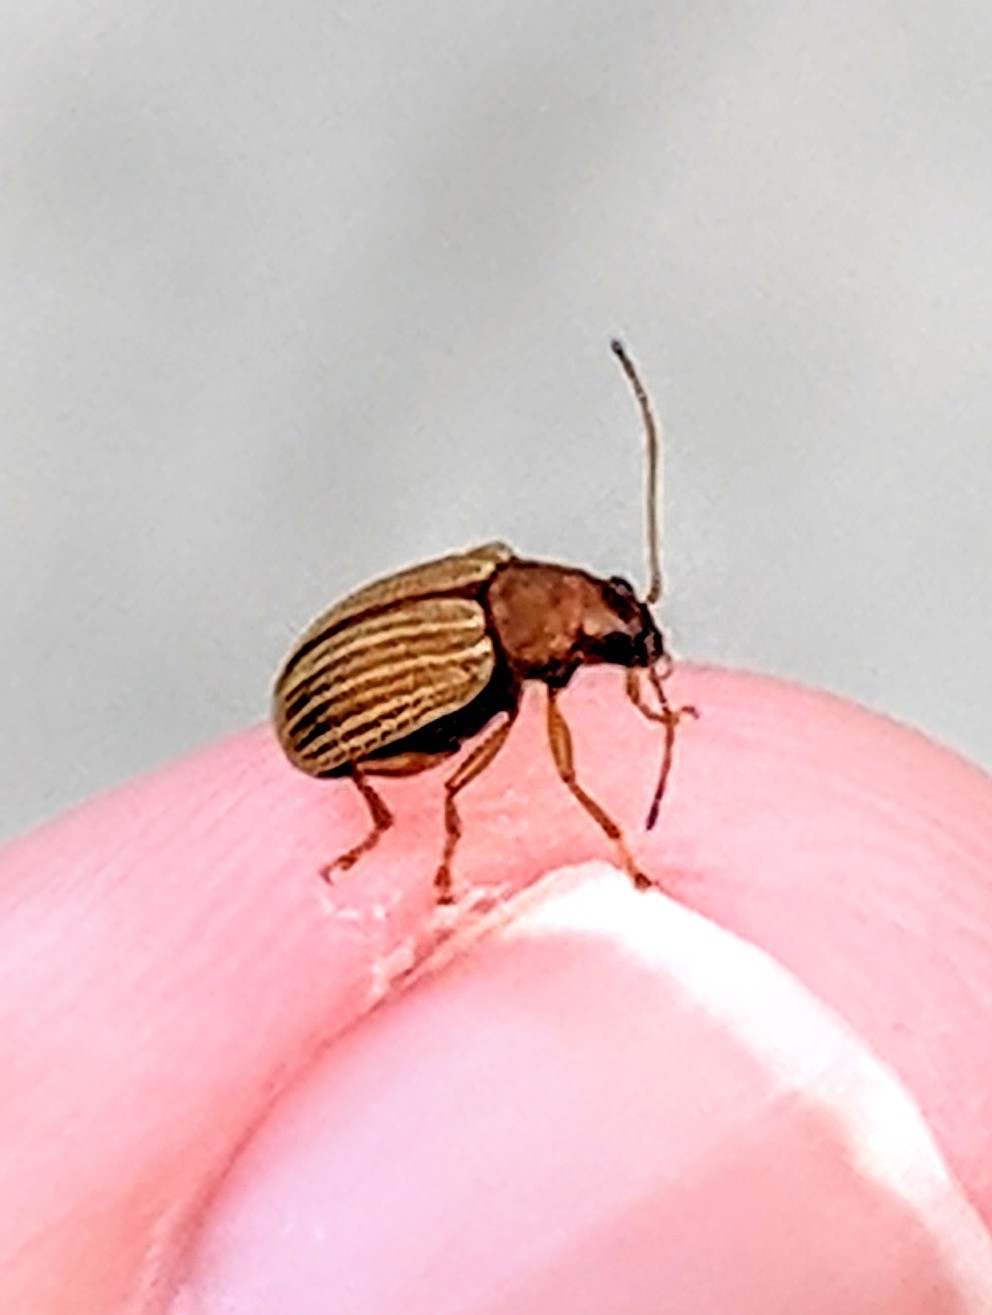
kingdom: Animalia
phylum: Arthropoda
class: Insecta
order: Coleoptera
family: Chrysomelidae
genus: Colaspis
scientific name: Colaspis brunnea
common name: Grape colaspis
